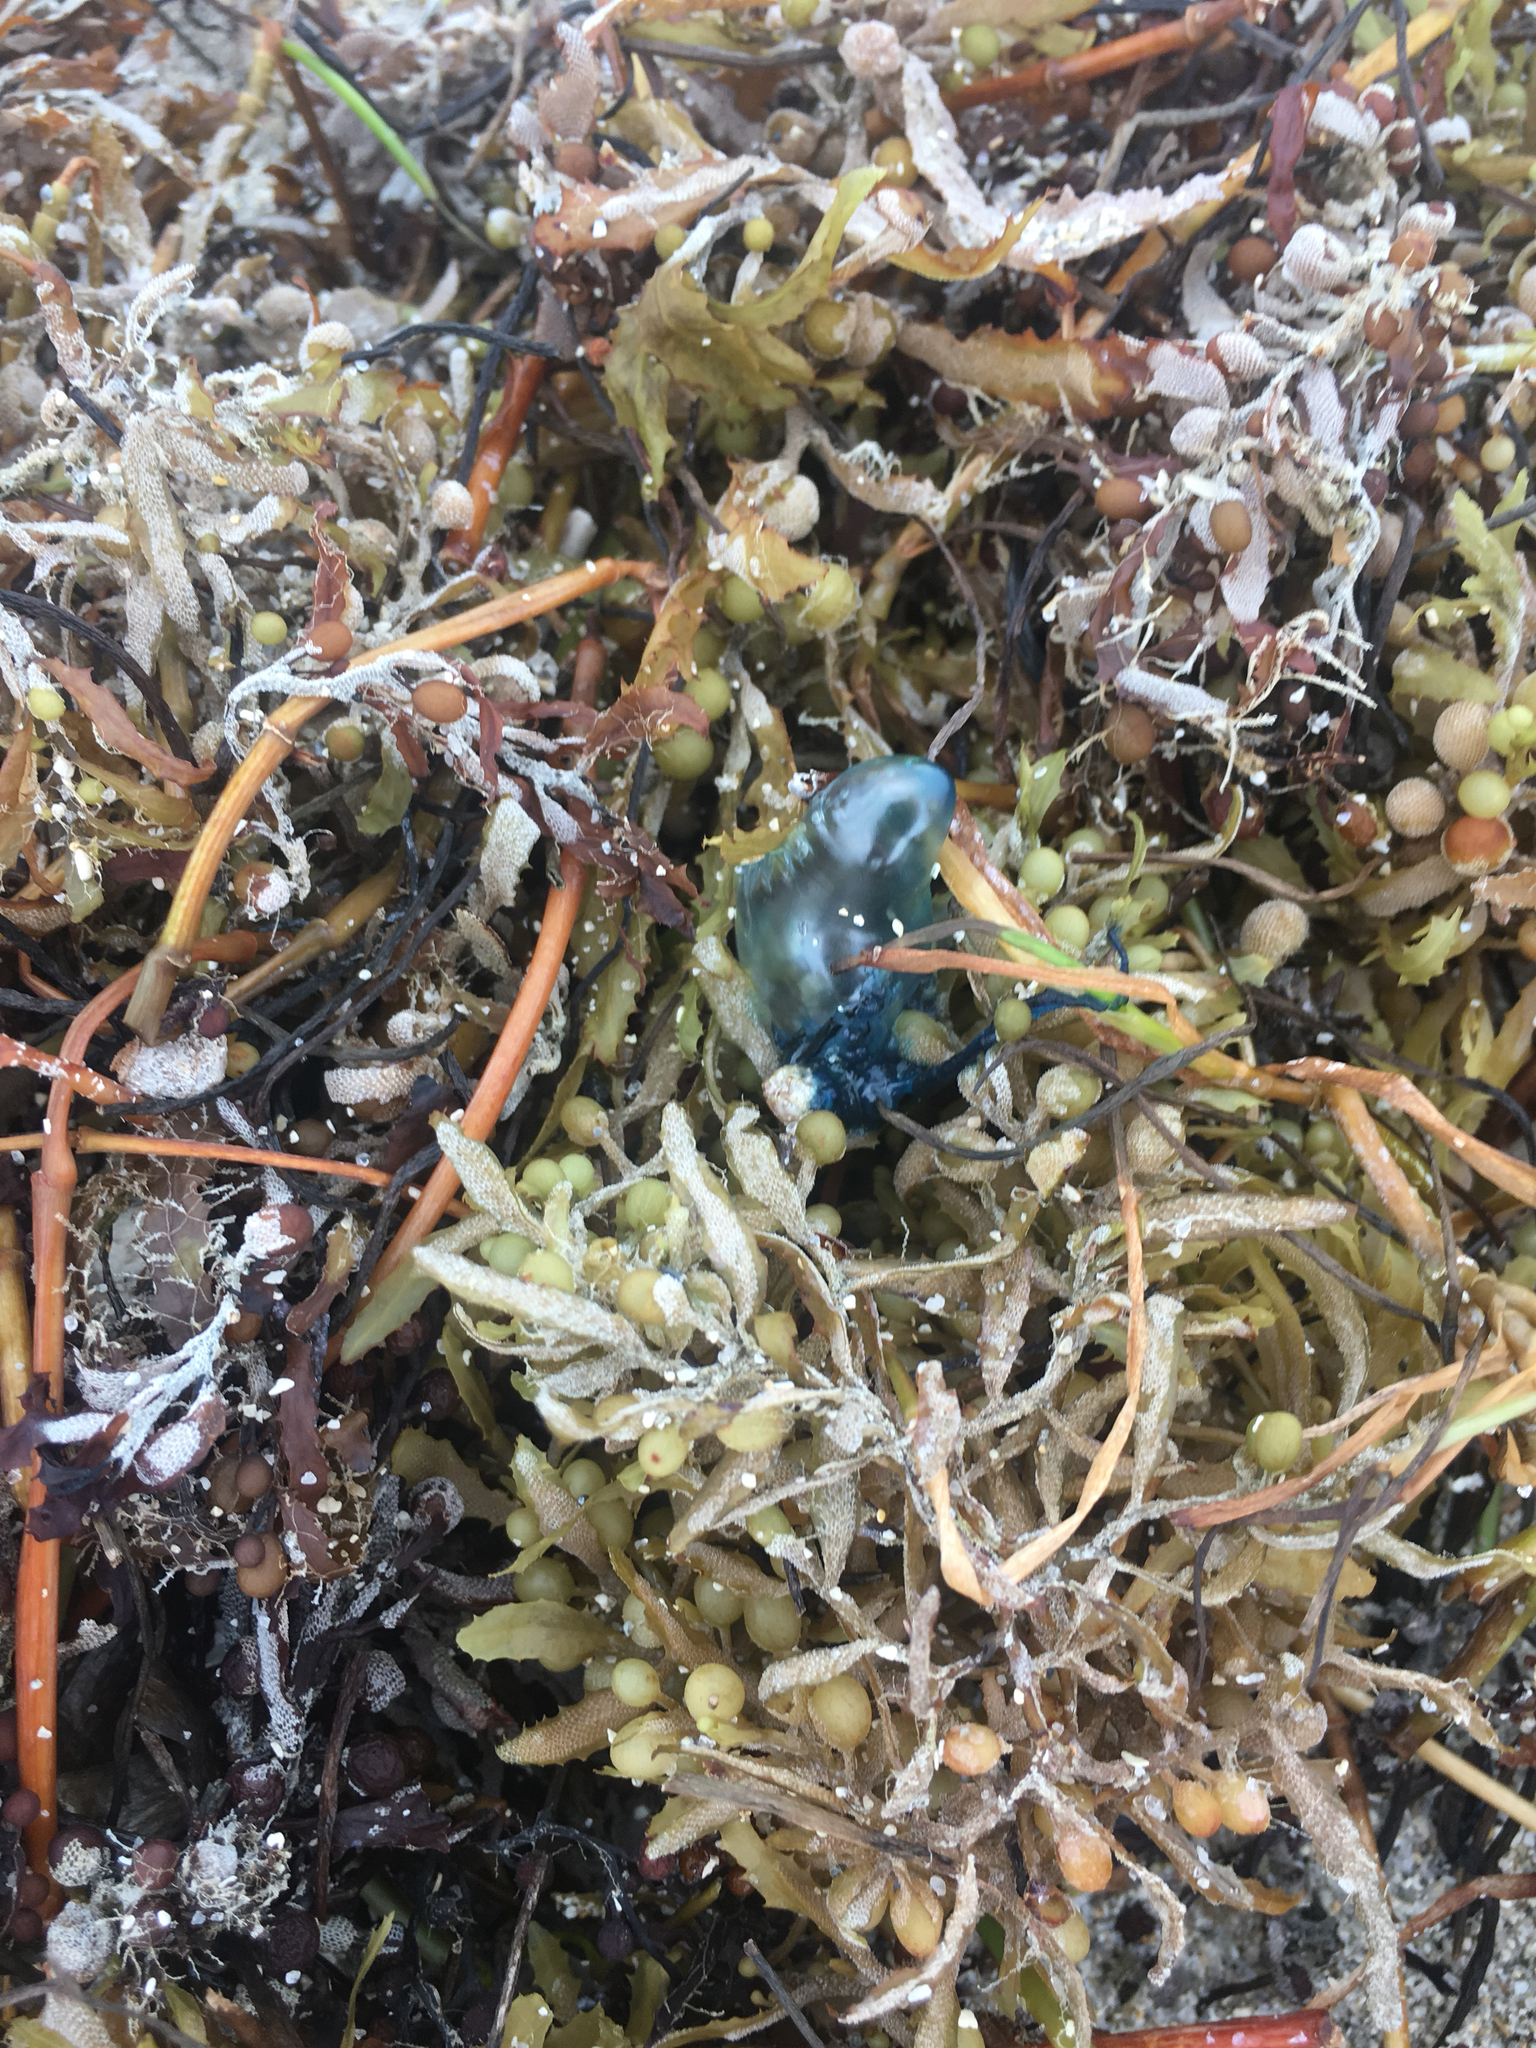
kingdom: Plantae
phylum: Tracheophyta
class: Liliopsida
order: Alismatales
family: Cymodoceaceae
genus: Syringodium
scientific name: Syringodium filiforme
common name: Manatee grass
